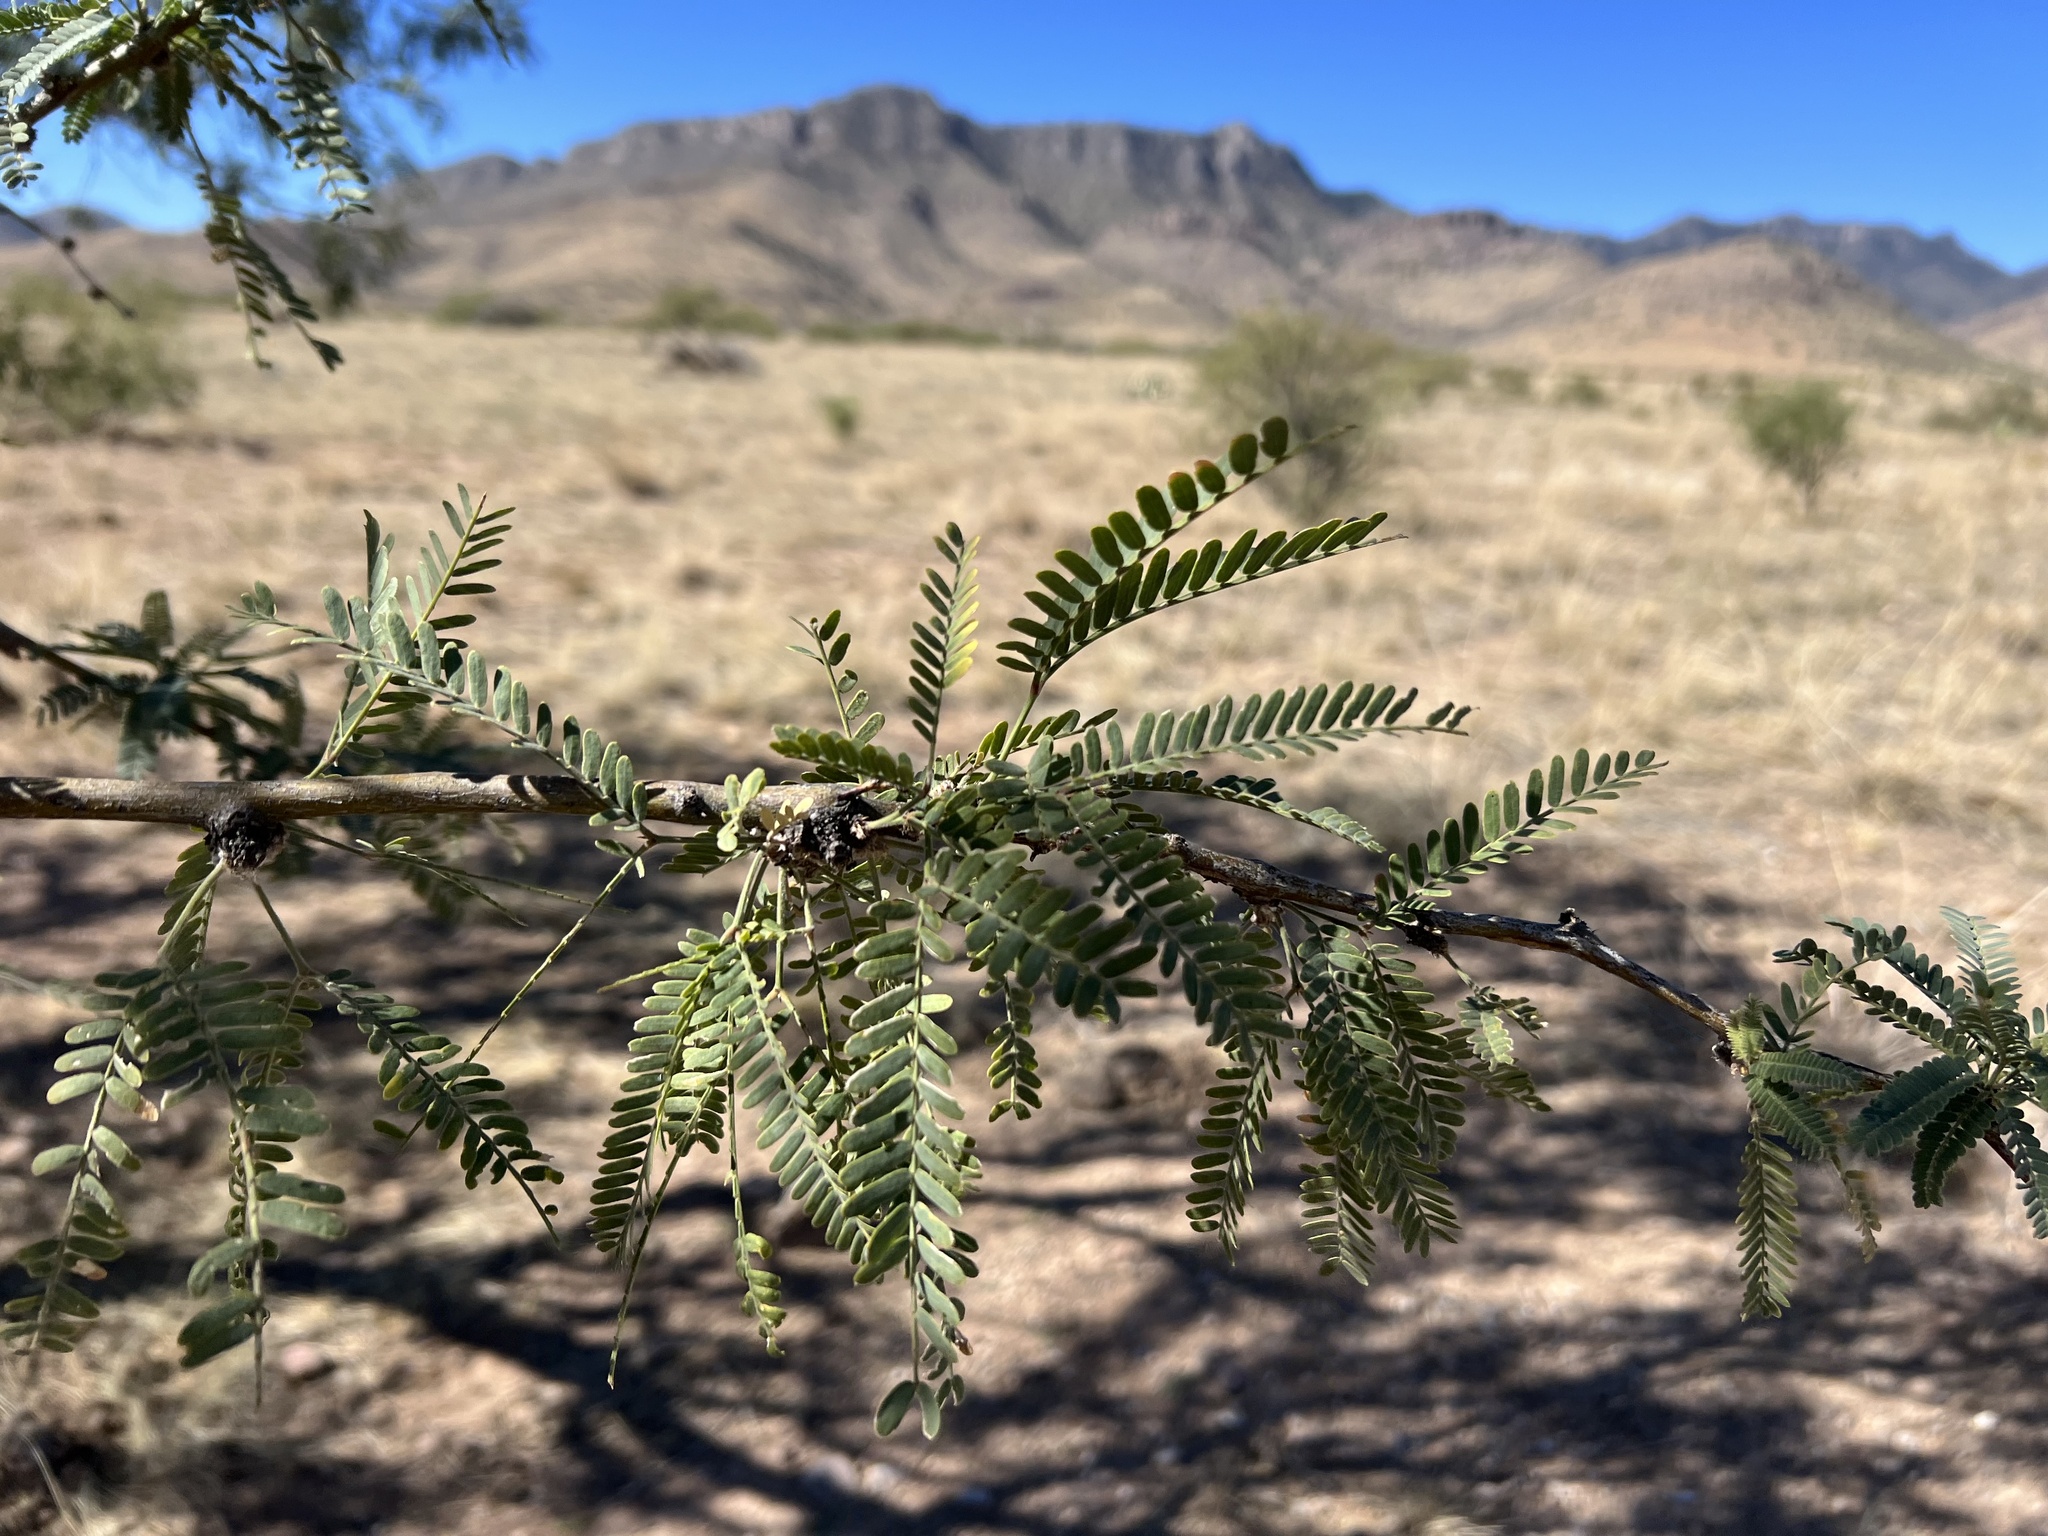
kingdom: Plantae
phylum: Tracheophyta
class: Magnoliopsida
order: Fabales
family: Fabaceae
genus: Prosopis
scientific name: Prosopis velutina
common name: Velvet mesquite
